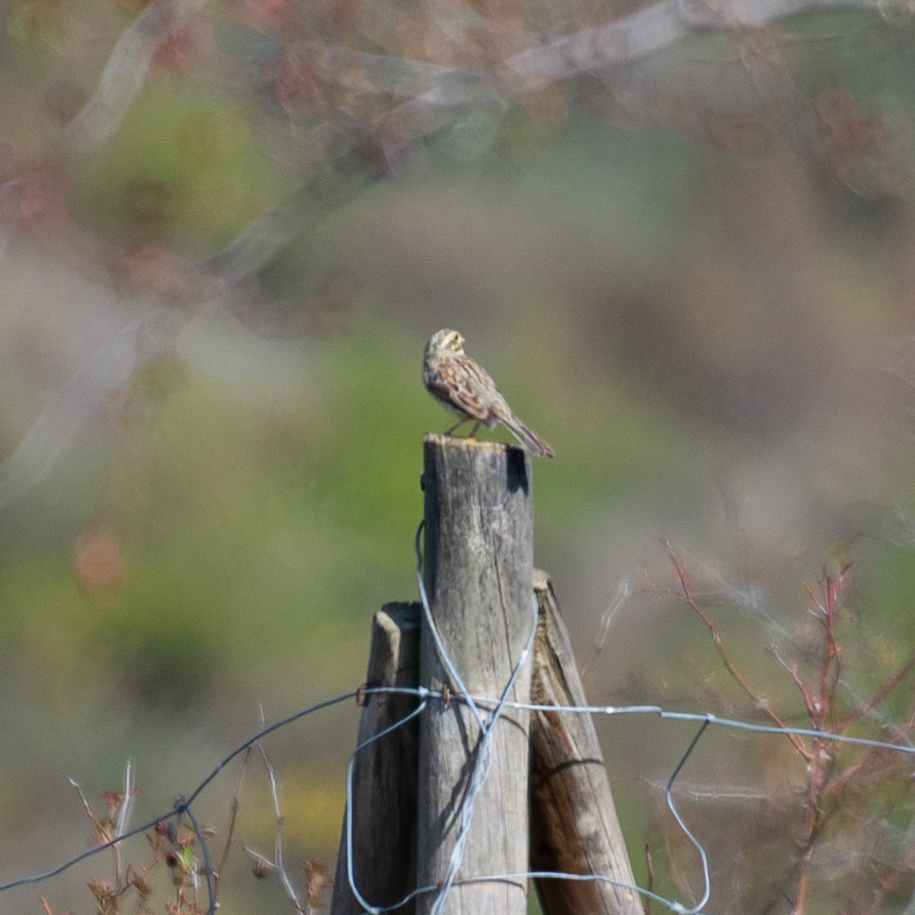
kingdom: Animalia
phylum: Chordata
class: Aves
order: Passeriformes
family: Emberizidae
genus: Emberiza
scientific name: Emberiza cirlus
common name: Cirl bunting
